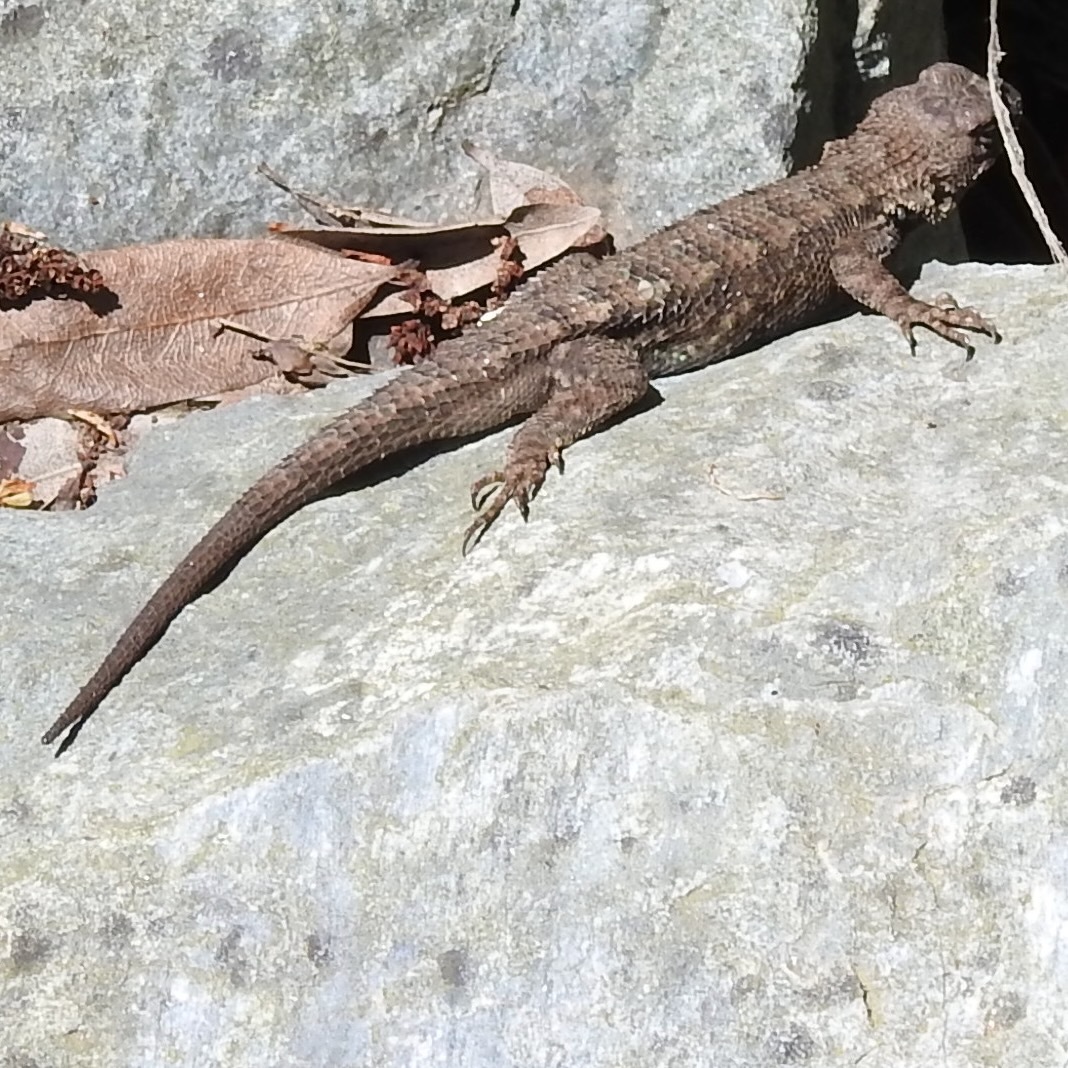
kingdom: Animalia
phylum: Chordata
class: Squamata
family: Phrynosomatidae
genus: Sceloporus
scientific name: Sceloporus occidentalis
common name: Western fence lizard
